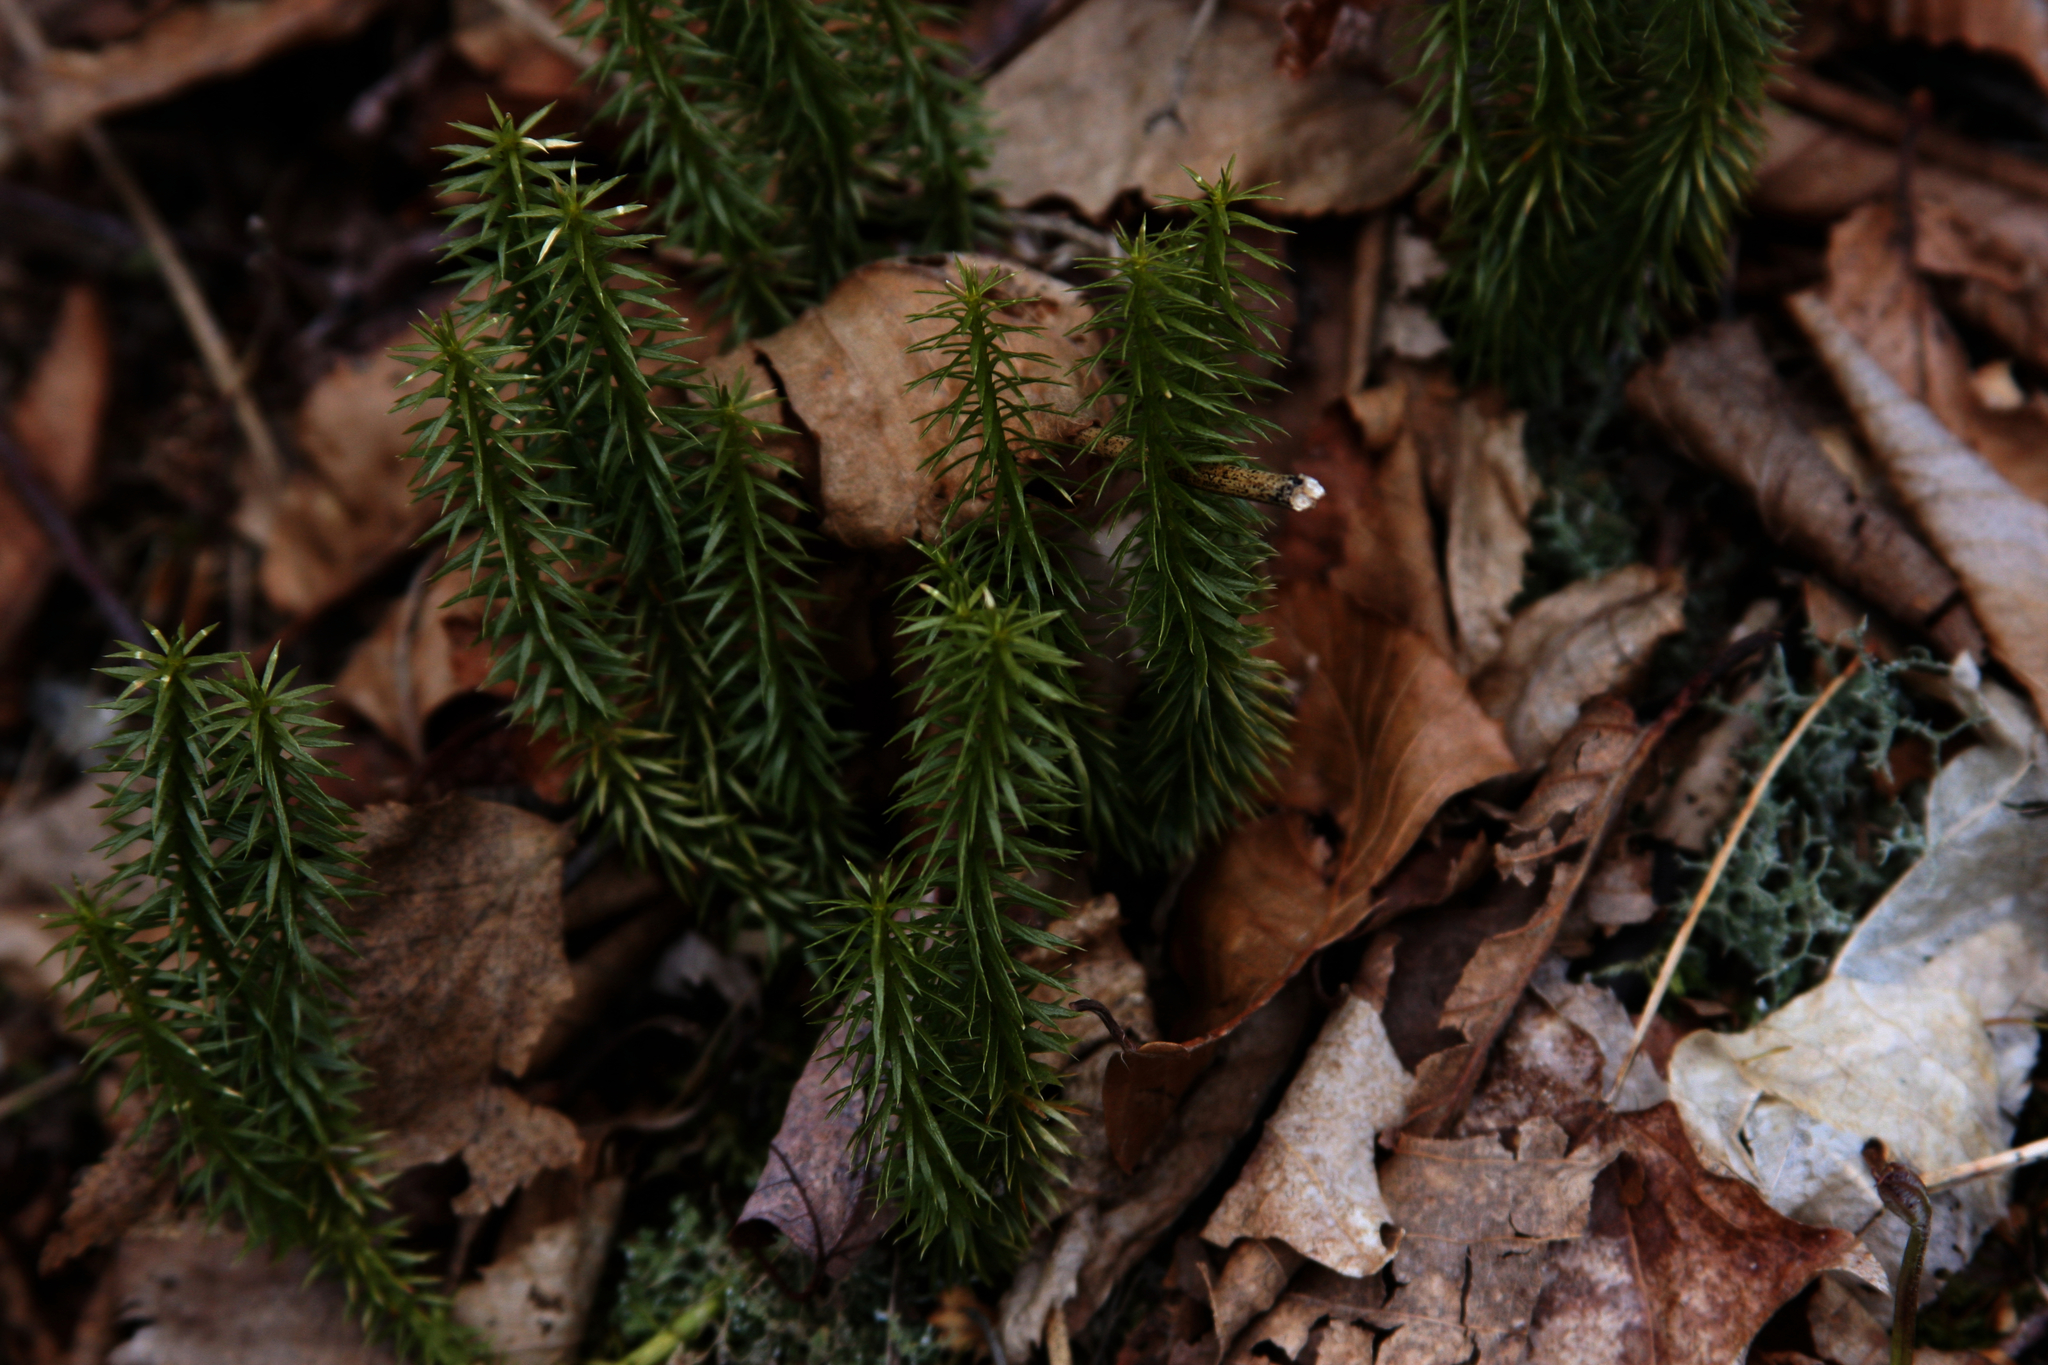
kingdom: Plantae
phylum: Tracheophyta
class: Lycopodiopsida
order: Lycopodiales
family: Lycopodiaceae
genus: Huperzia
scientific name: Huperzia lucidula
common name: Shining clubmoss
